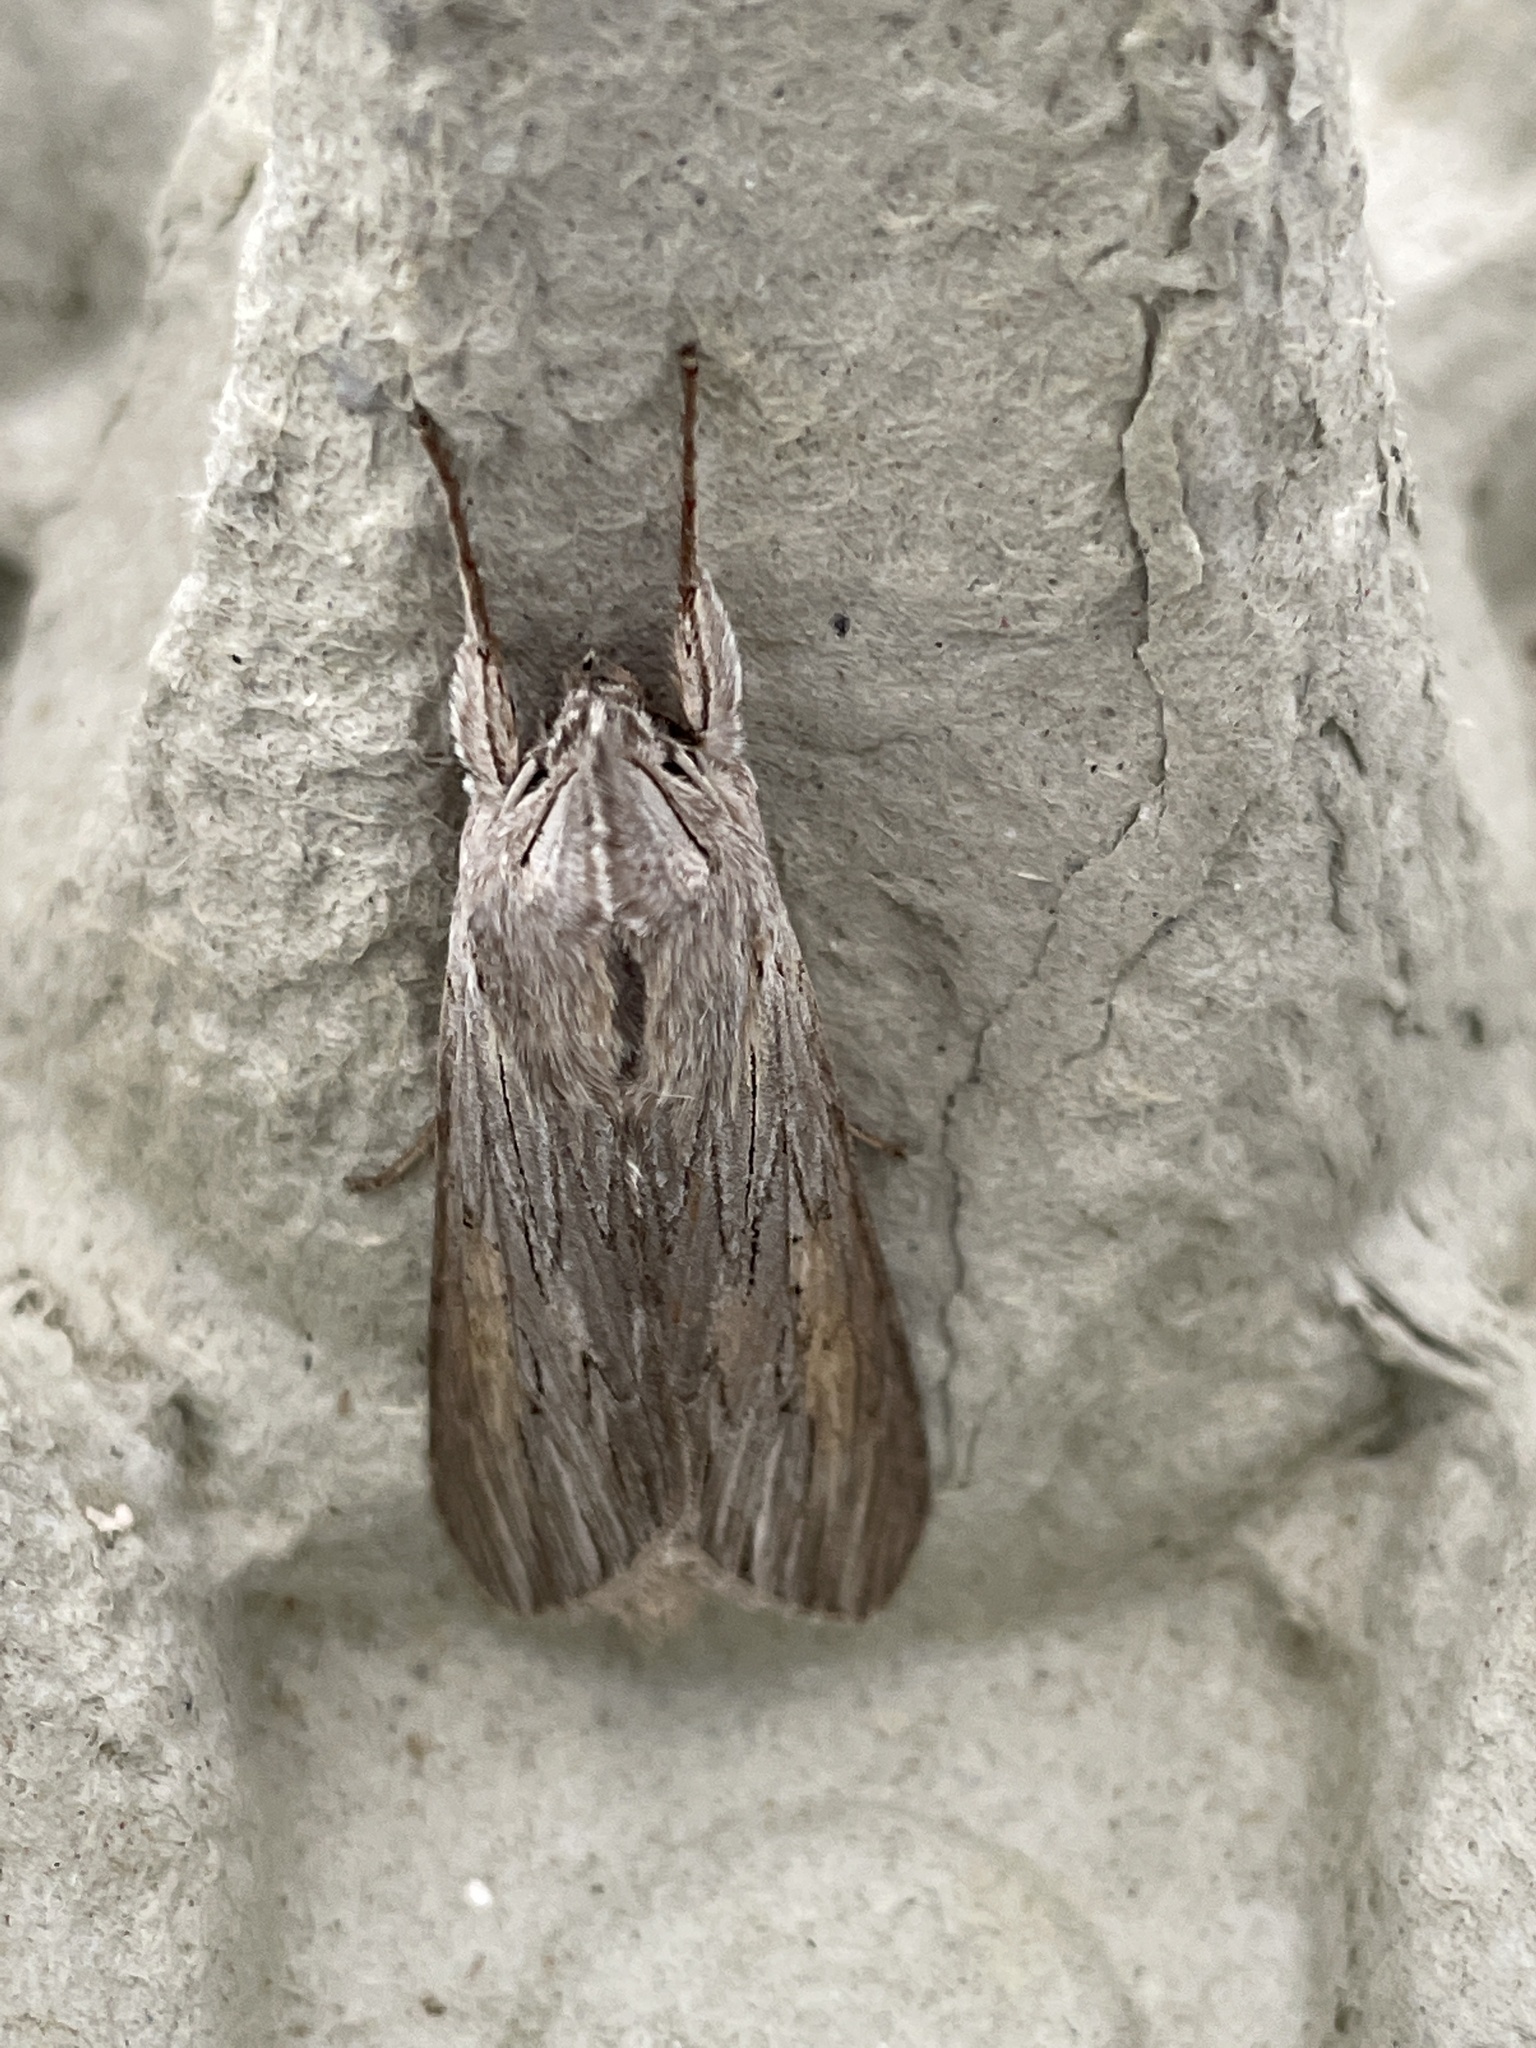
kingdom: Animalia
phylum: Arthropoda
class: Insecta
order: Lepidoptera
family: Noctuidae
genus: Cucullia
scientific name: Cucullia umbratica
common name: Shark
